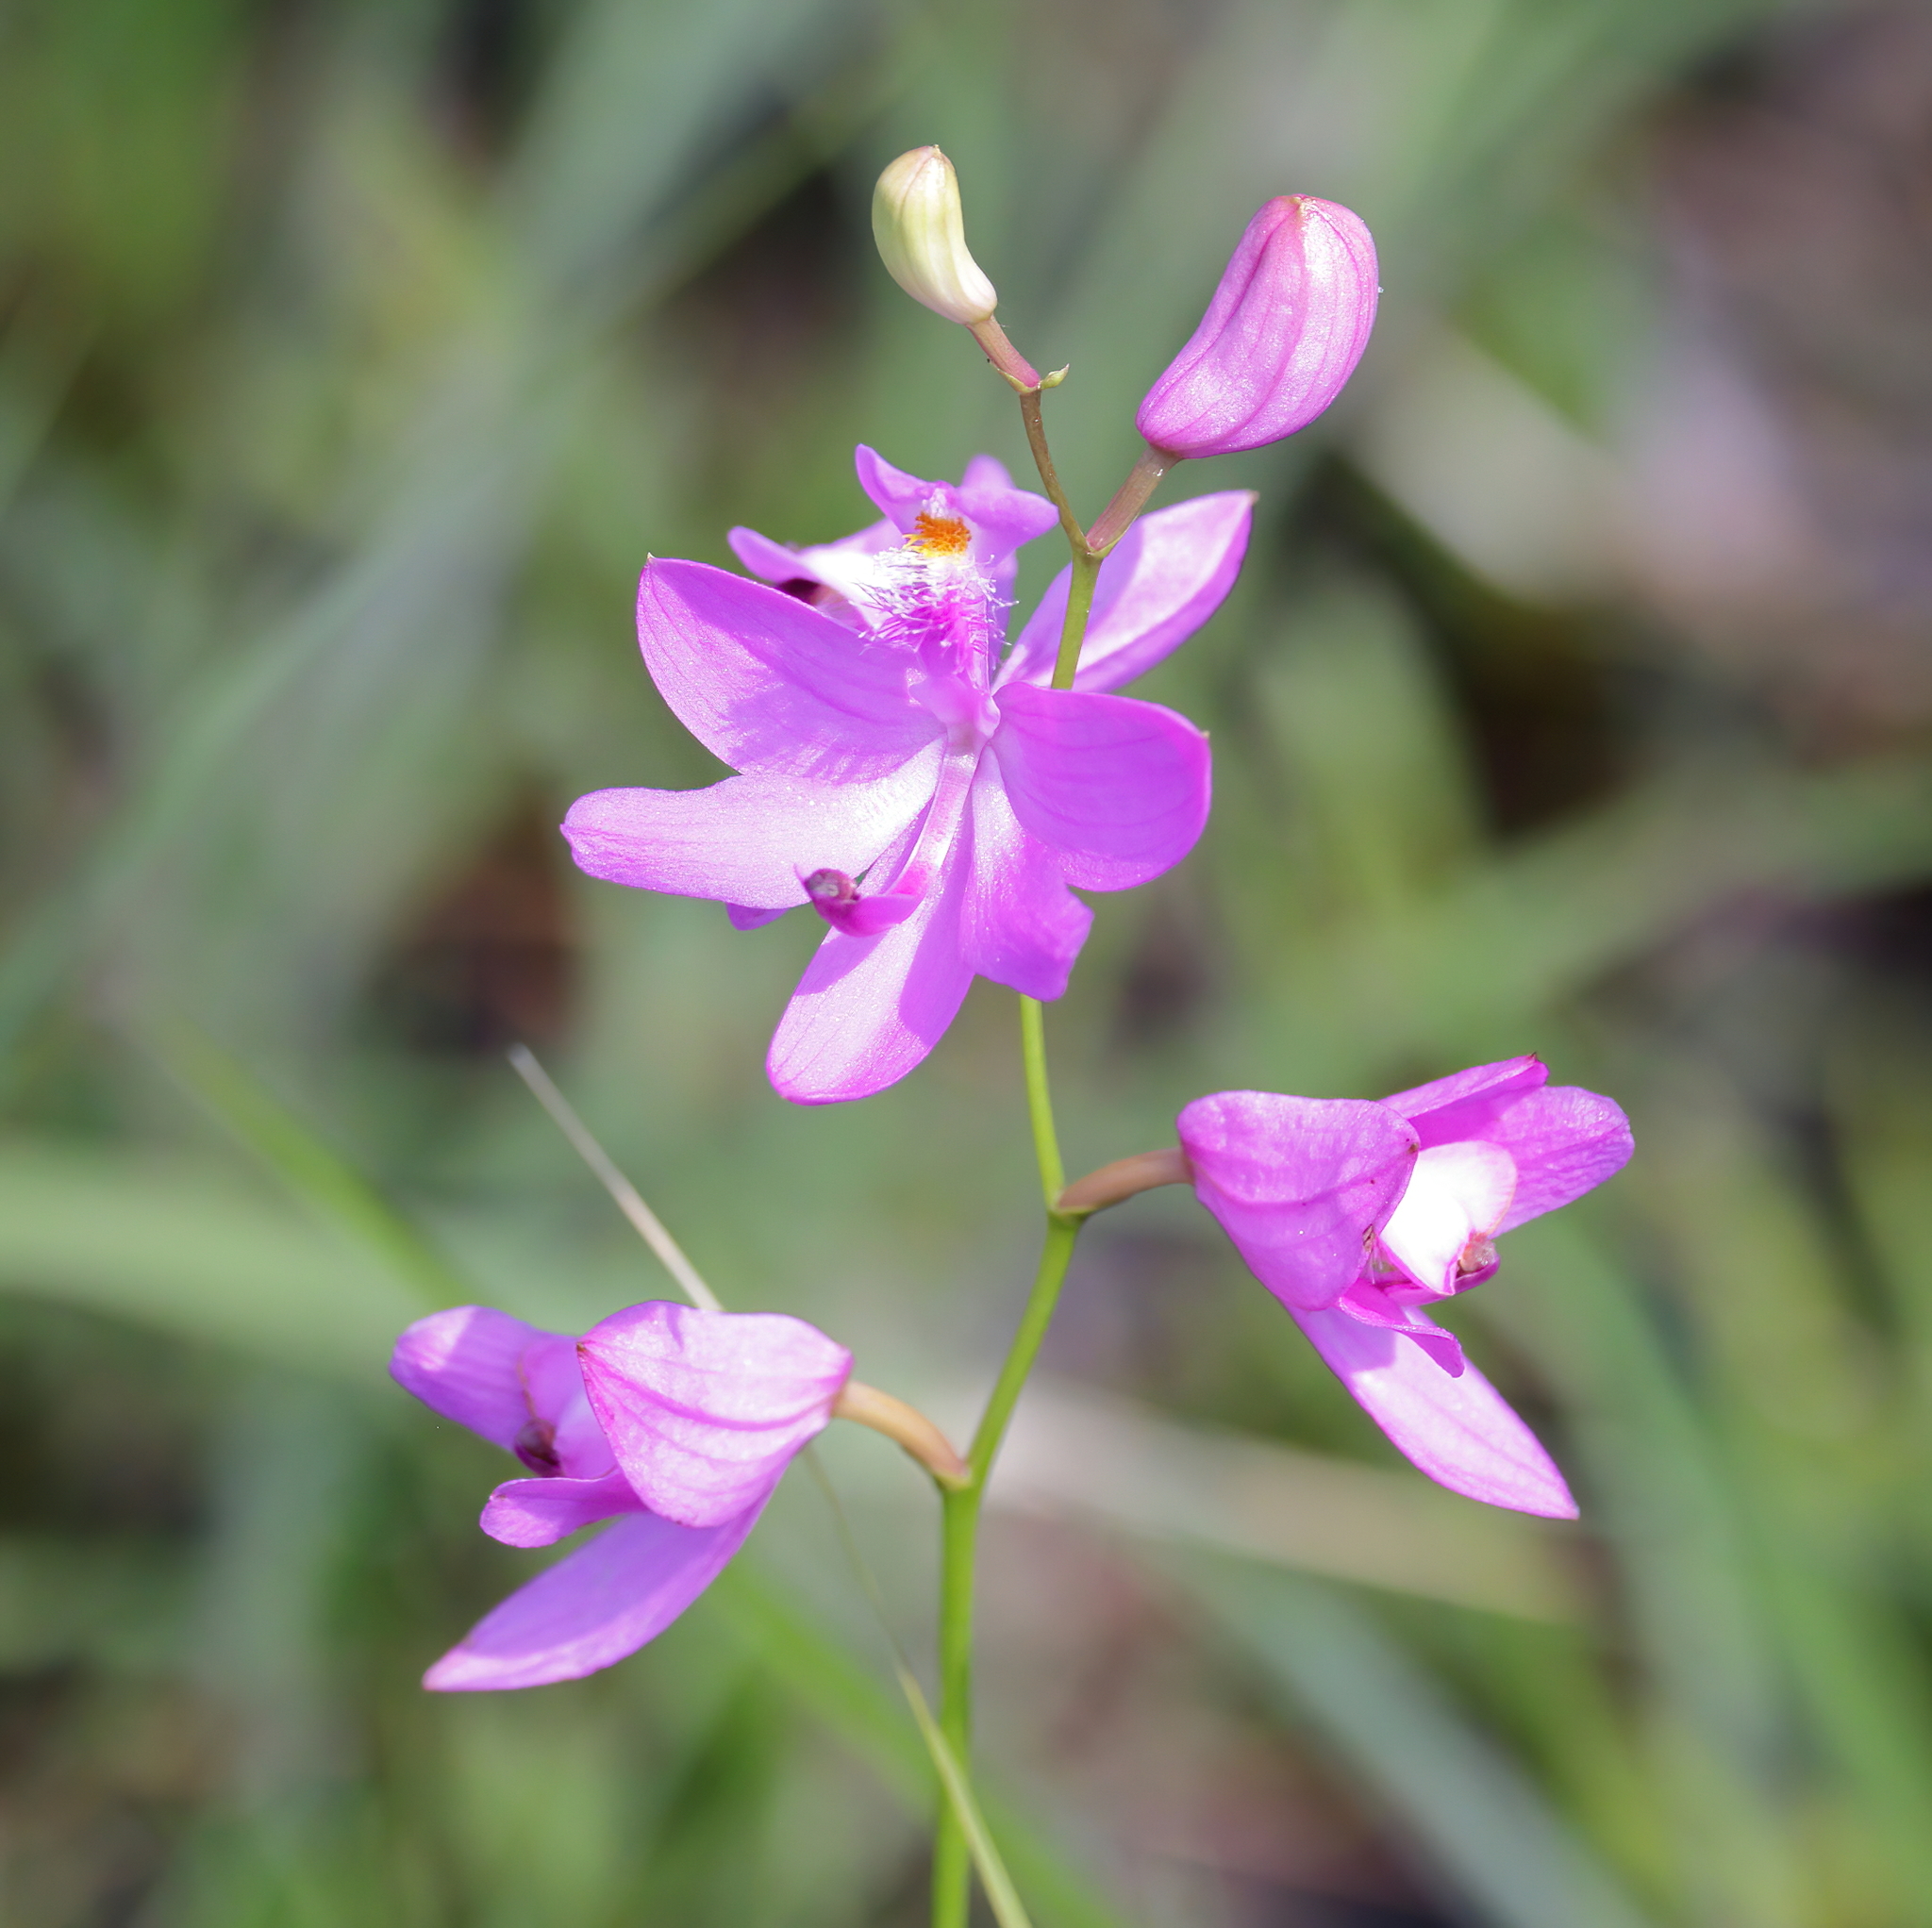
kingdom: Plantae
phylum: Tracheophyta
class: Liliopsida
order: Asparagales
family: Orchidaceae
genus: Calopogon
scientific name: Calopogon tuberosus
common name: Grass-pink
